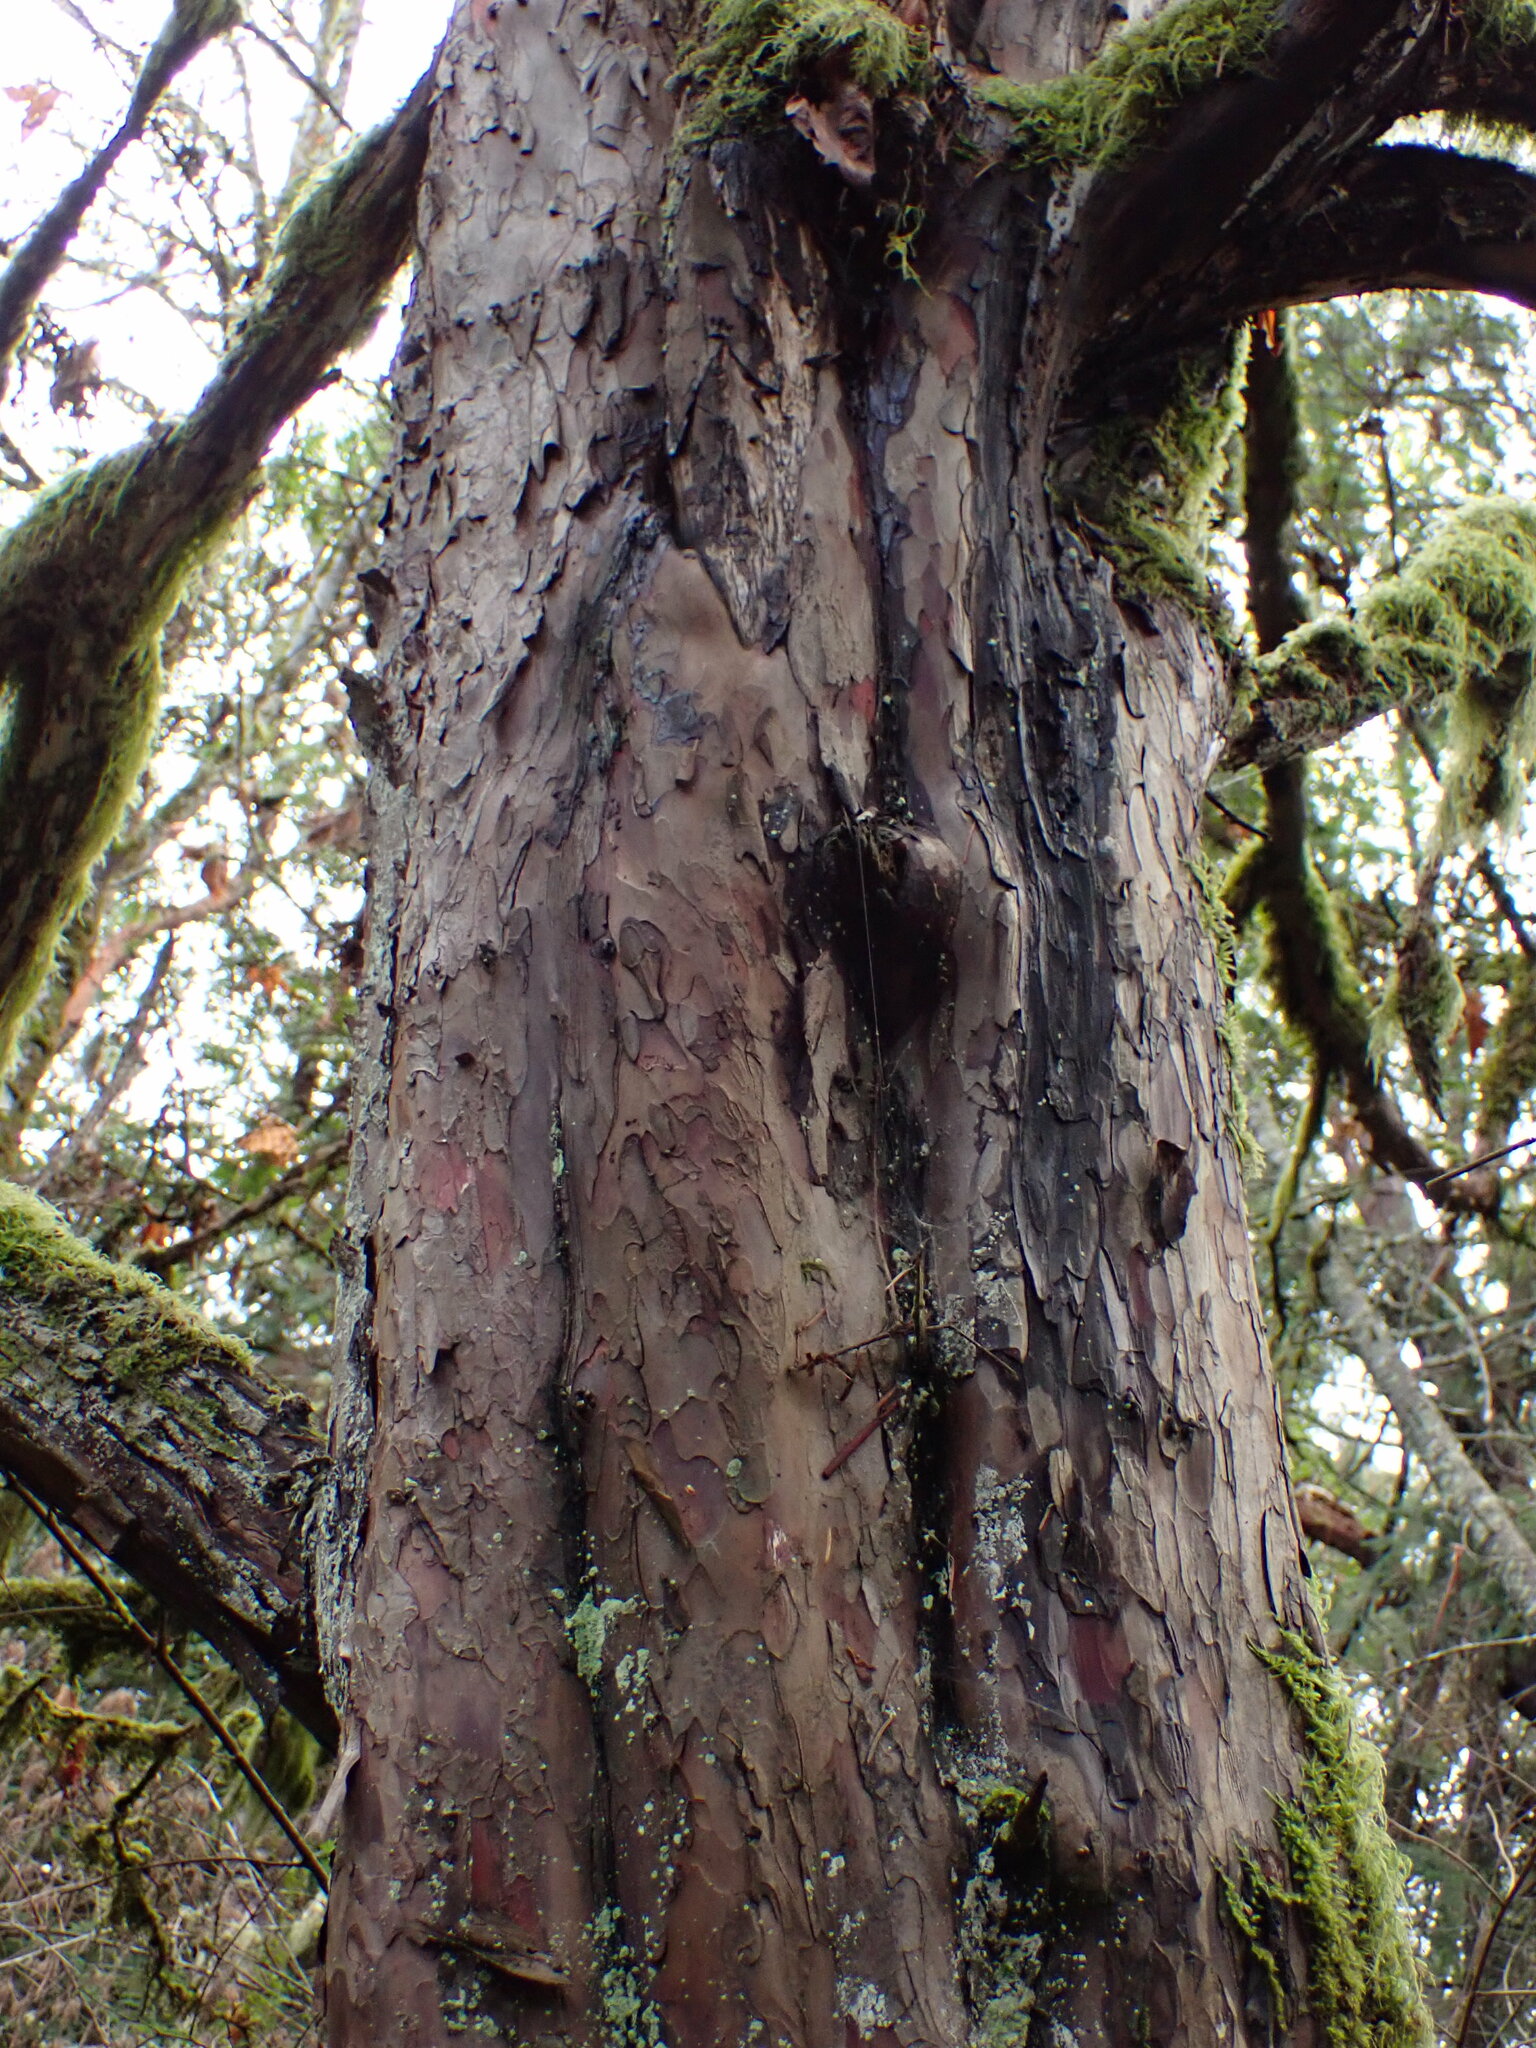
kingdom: Plantae
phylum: Tracheophyta
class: Pinopsida
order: Pinales
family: Taxaceae
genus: Taxus
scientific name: Taxus brevifolia
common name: Pacific yew
